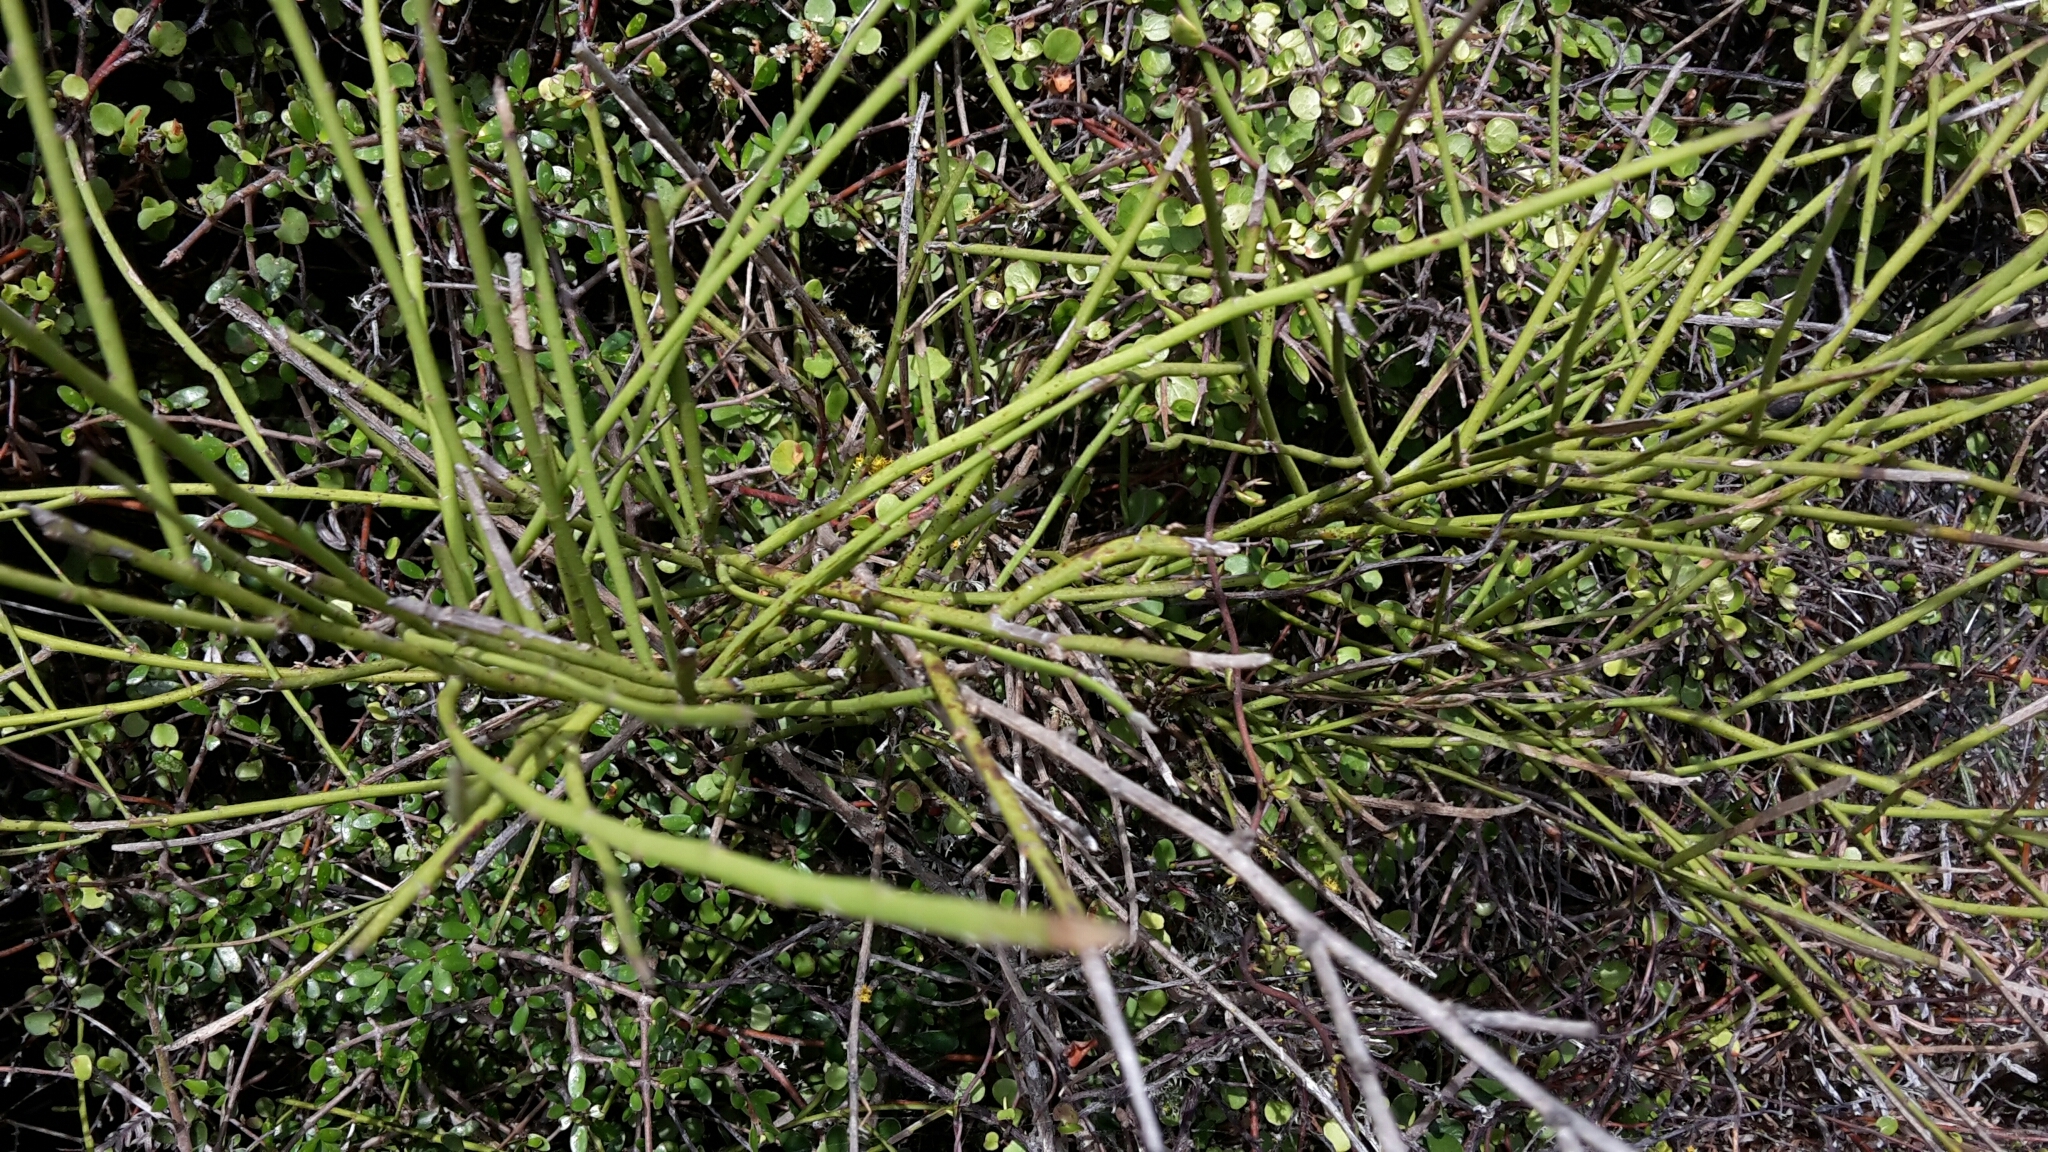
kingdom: Plantae
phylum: Tracheophyta
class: Magnoliopsida
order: Fabales
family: Fabaceae
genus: Carmichaelia
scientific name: Carmichaelia australis
